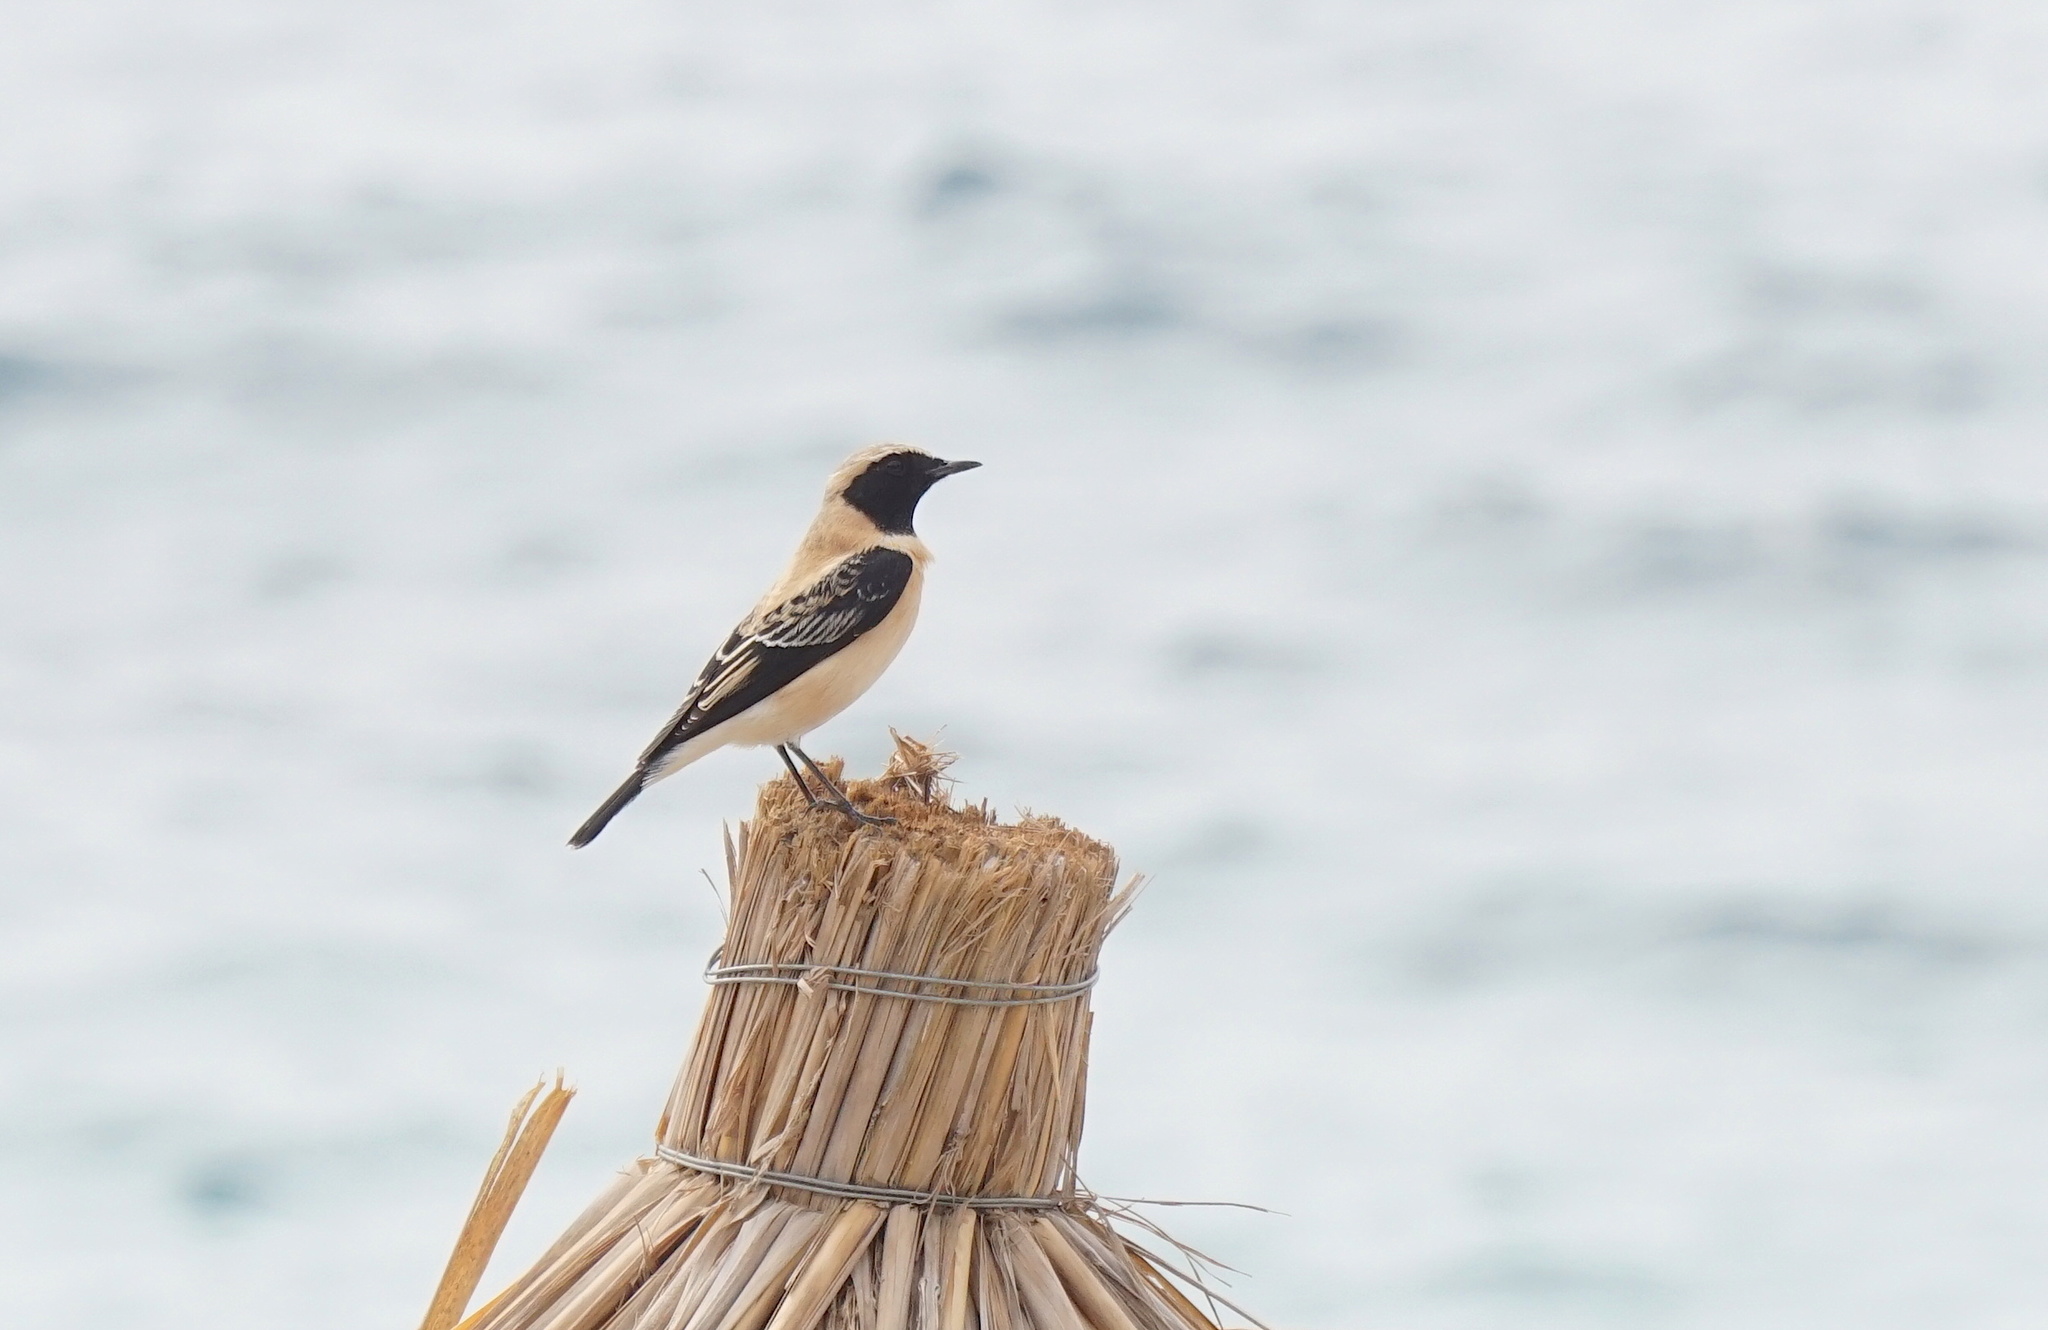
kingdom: Animalia
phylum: Chordata
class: Aves
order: Passeriformes
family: Muscicapidae
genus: Oenanthe
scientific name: Oenanthe hispanica
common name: Black-eared wheatear
